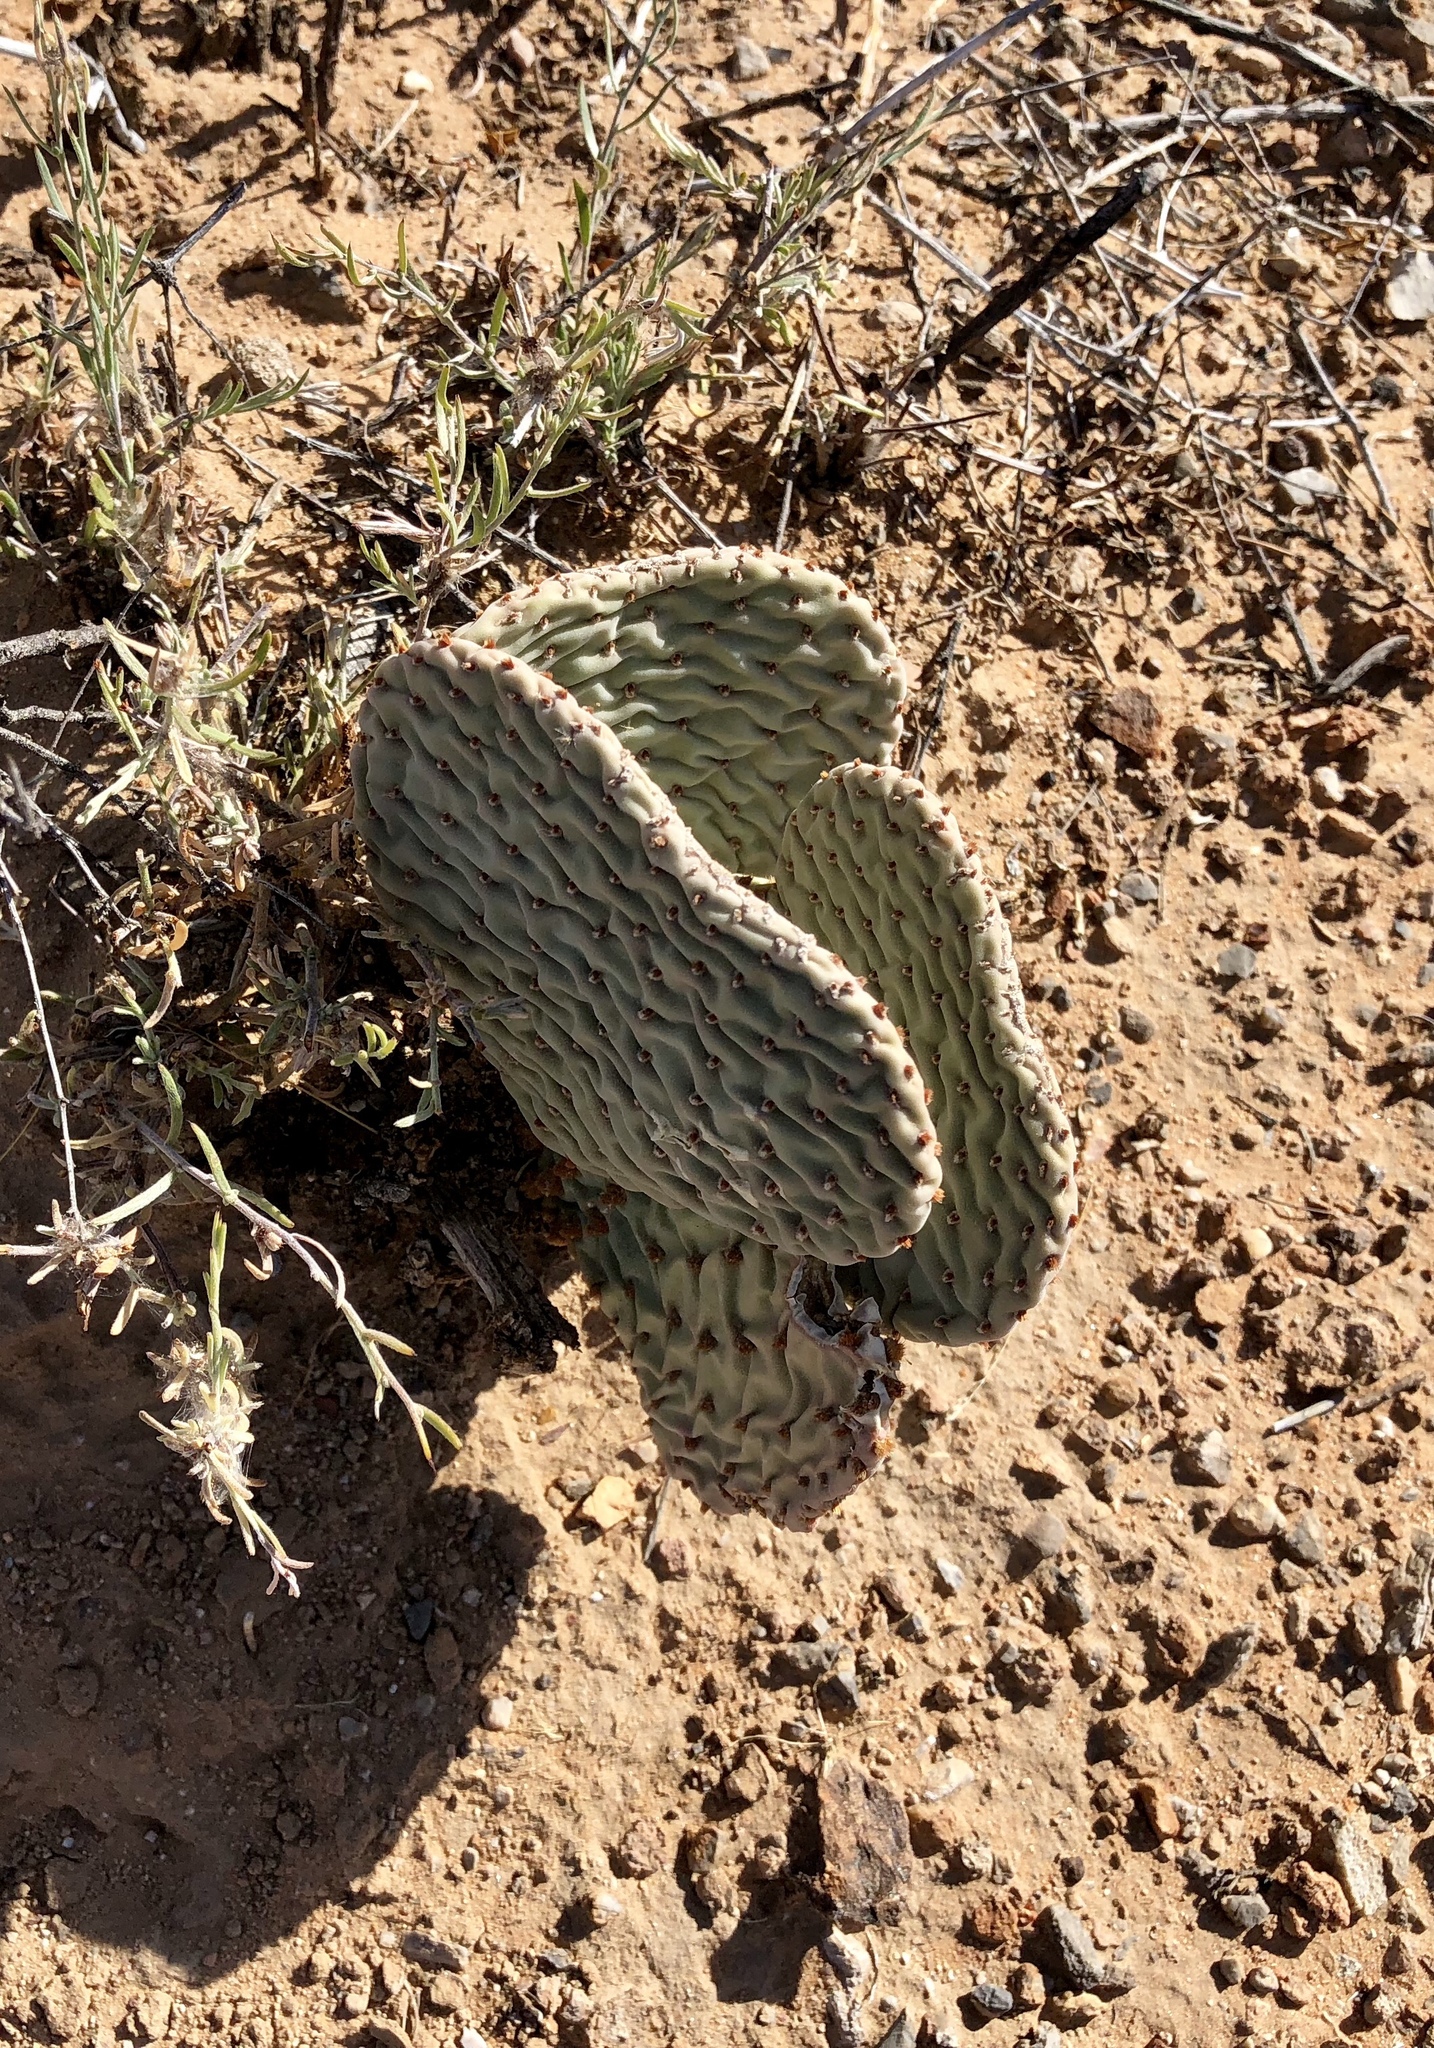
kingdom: Plantae
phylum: Tracheophyta
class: Magnoliopsida
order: Caryophyllales
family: Cactaceae
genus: Opuntia
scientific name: Opuntia basilaris
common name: Beavertail prickly-pear
